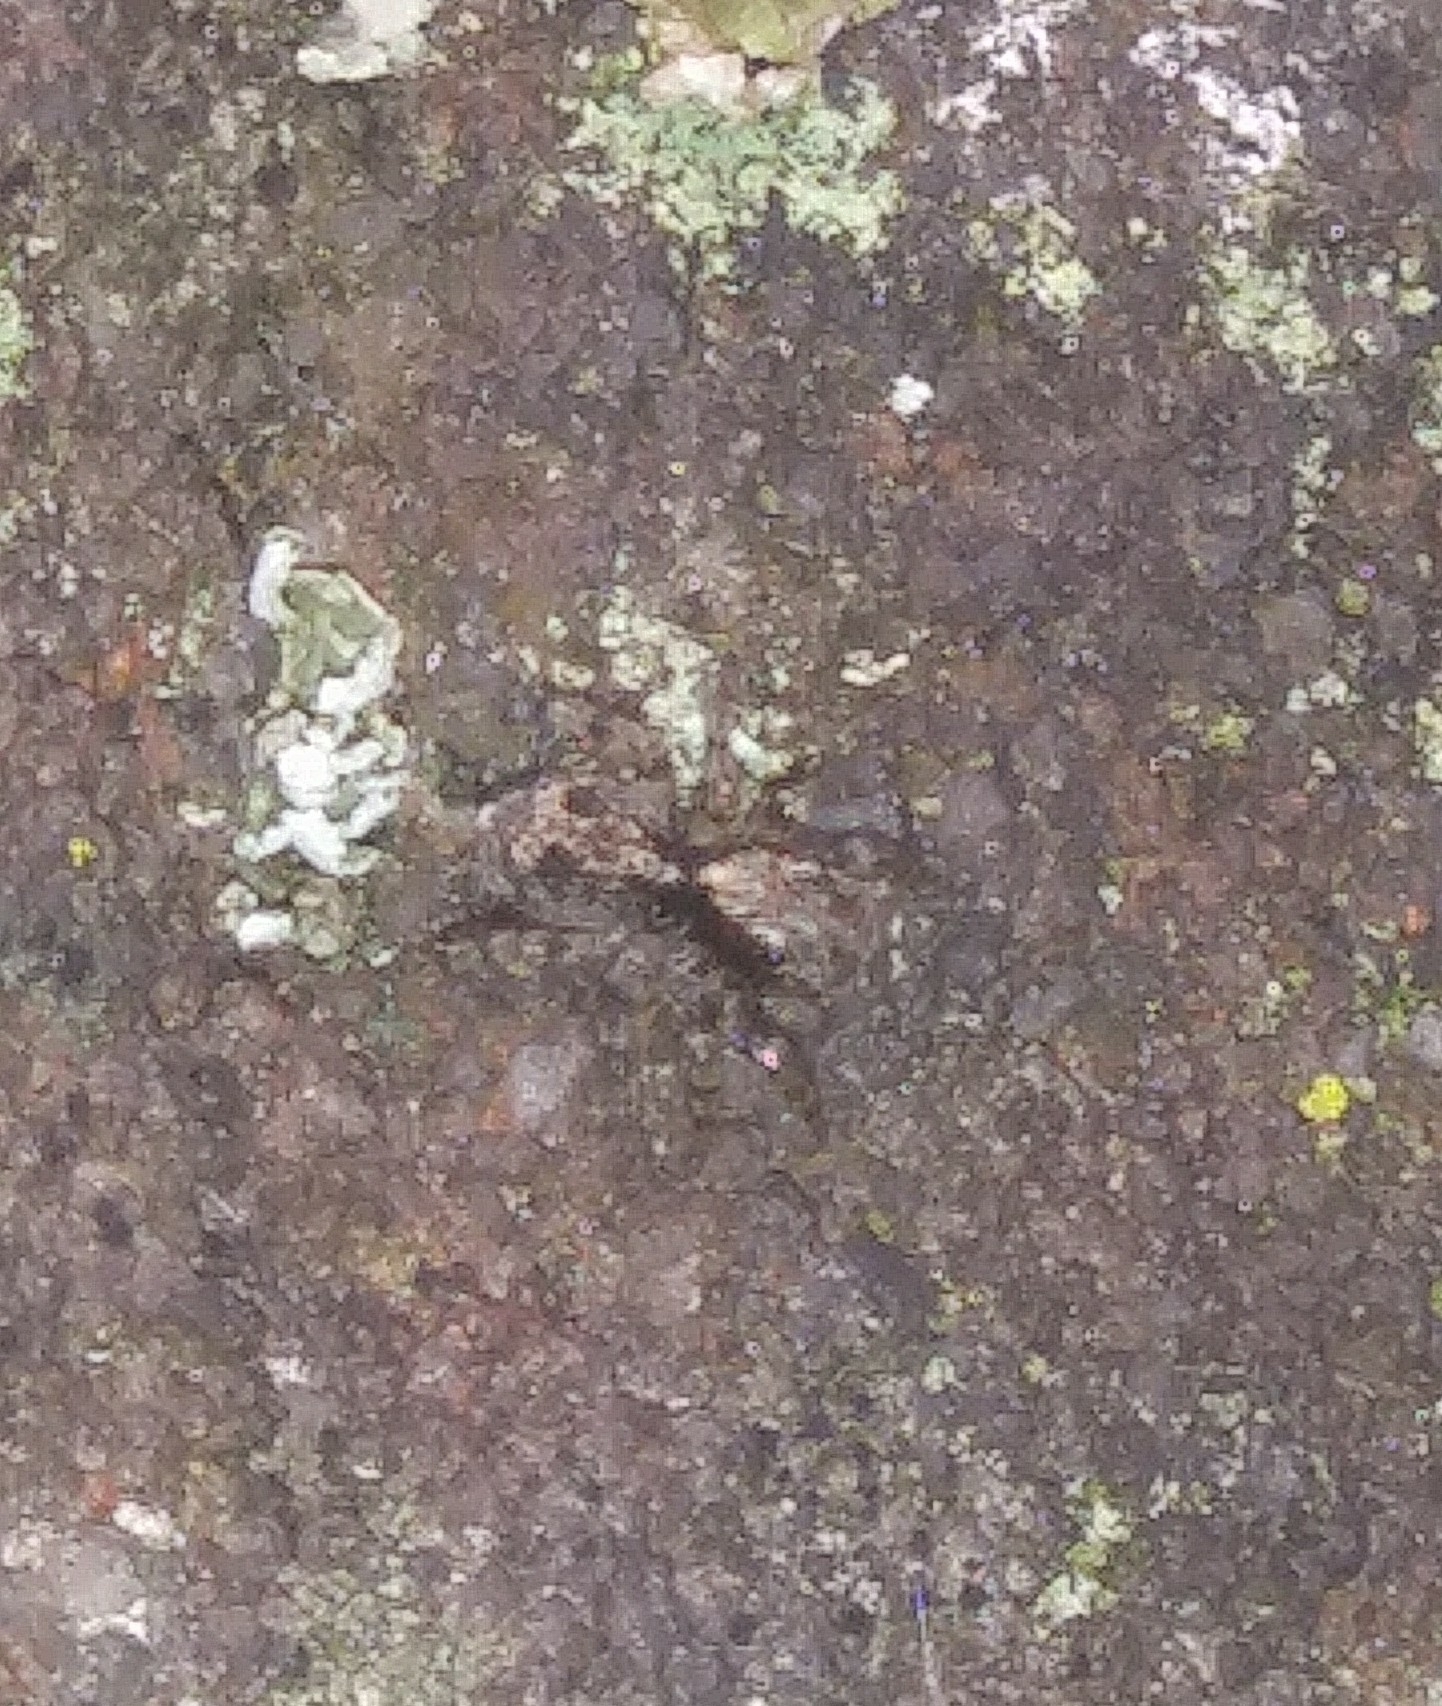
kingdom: Animalia
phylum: Arthropoda
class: Arachnida
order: Araneae
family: Salticidae
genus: Naphrys
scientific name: Naphrys pulex
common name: Flea jumping spider
